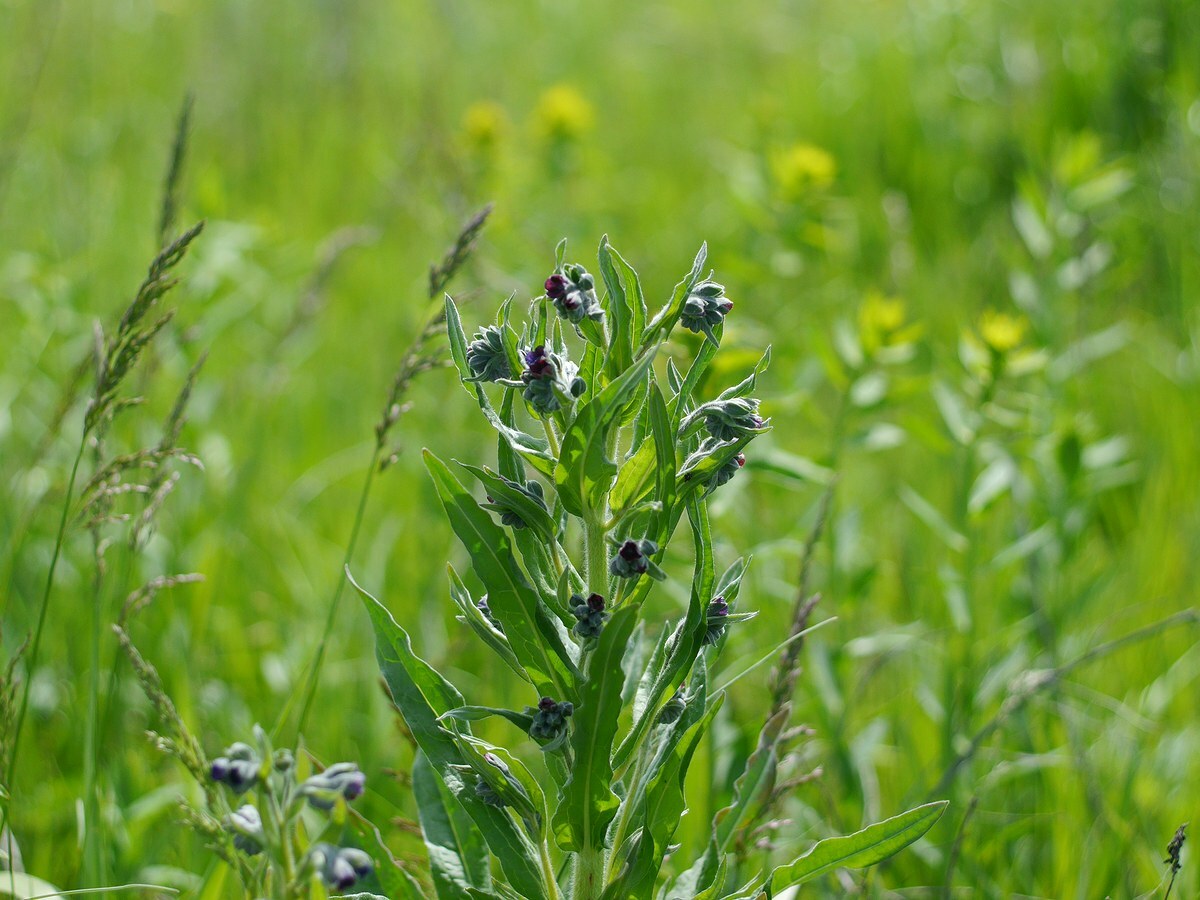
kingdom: Plantae
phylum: Tracheophyta
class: Magnoliopsida
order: Boraginales
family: Boraginaceae
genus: Cynoglossum
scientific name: Cynoglossum officinale
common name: Hound's-tongue
